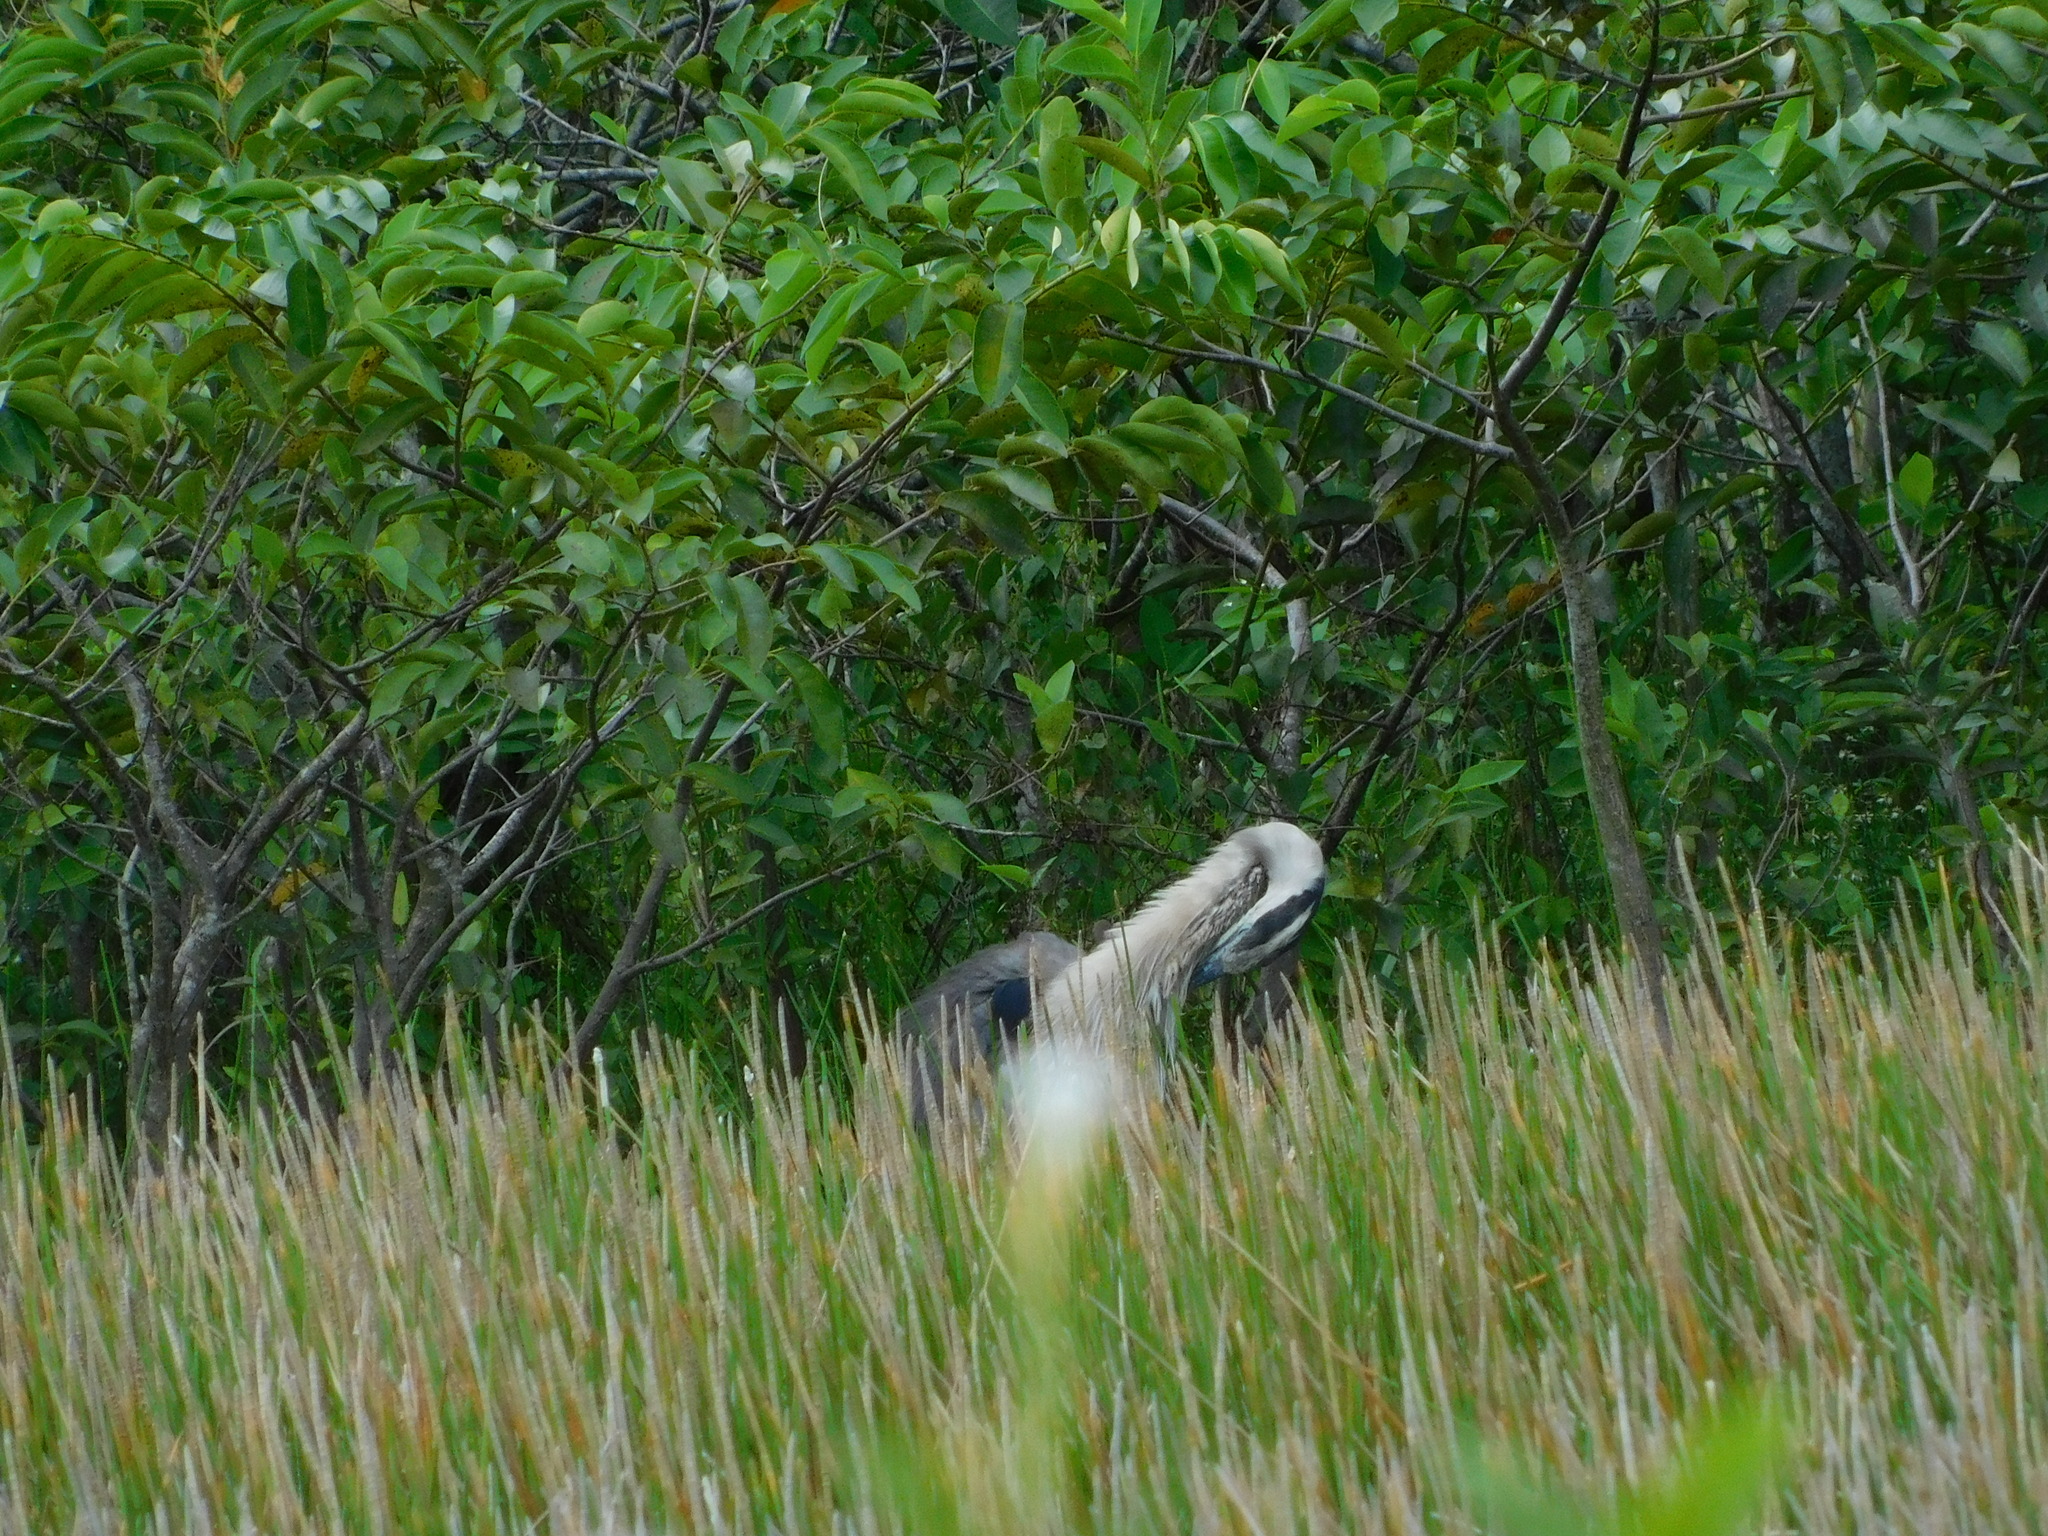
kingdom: Animalia
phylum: Chordata
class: Aves
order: Pelecaniformes
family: Ardeidae
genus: Ardea
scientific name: Ardea herodias
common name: Great blue heron
